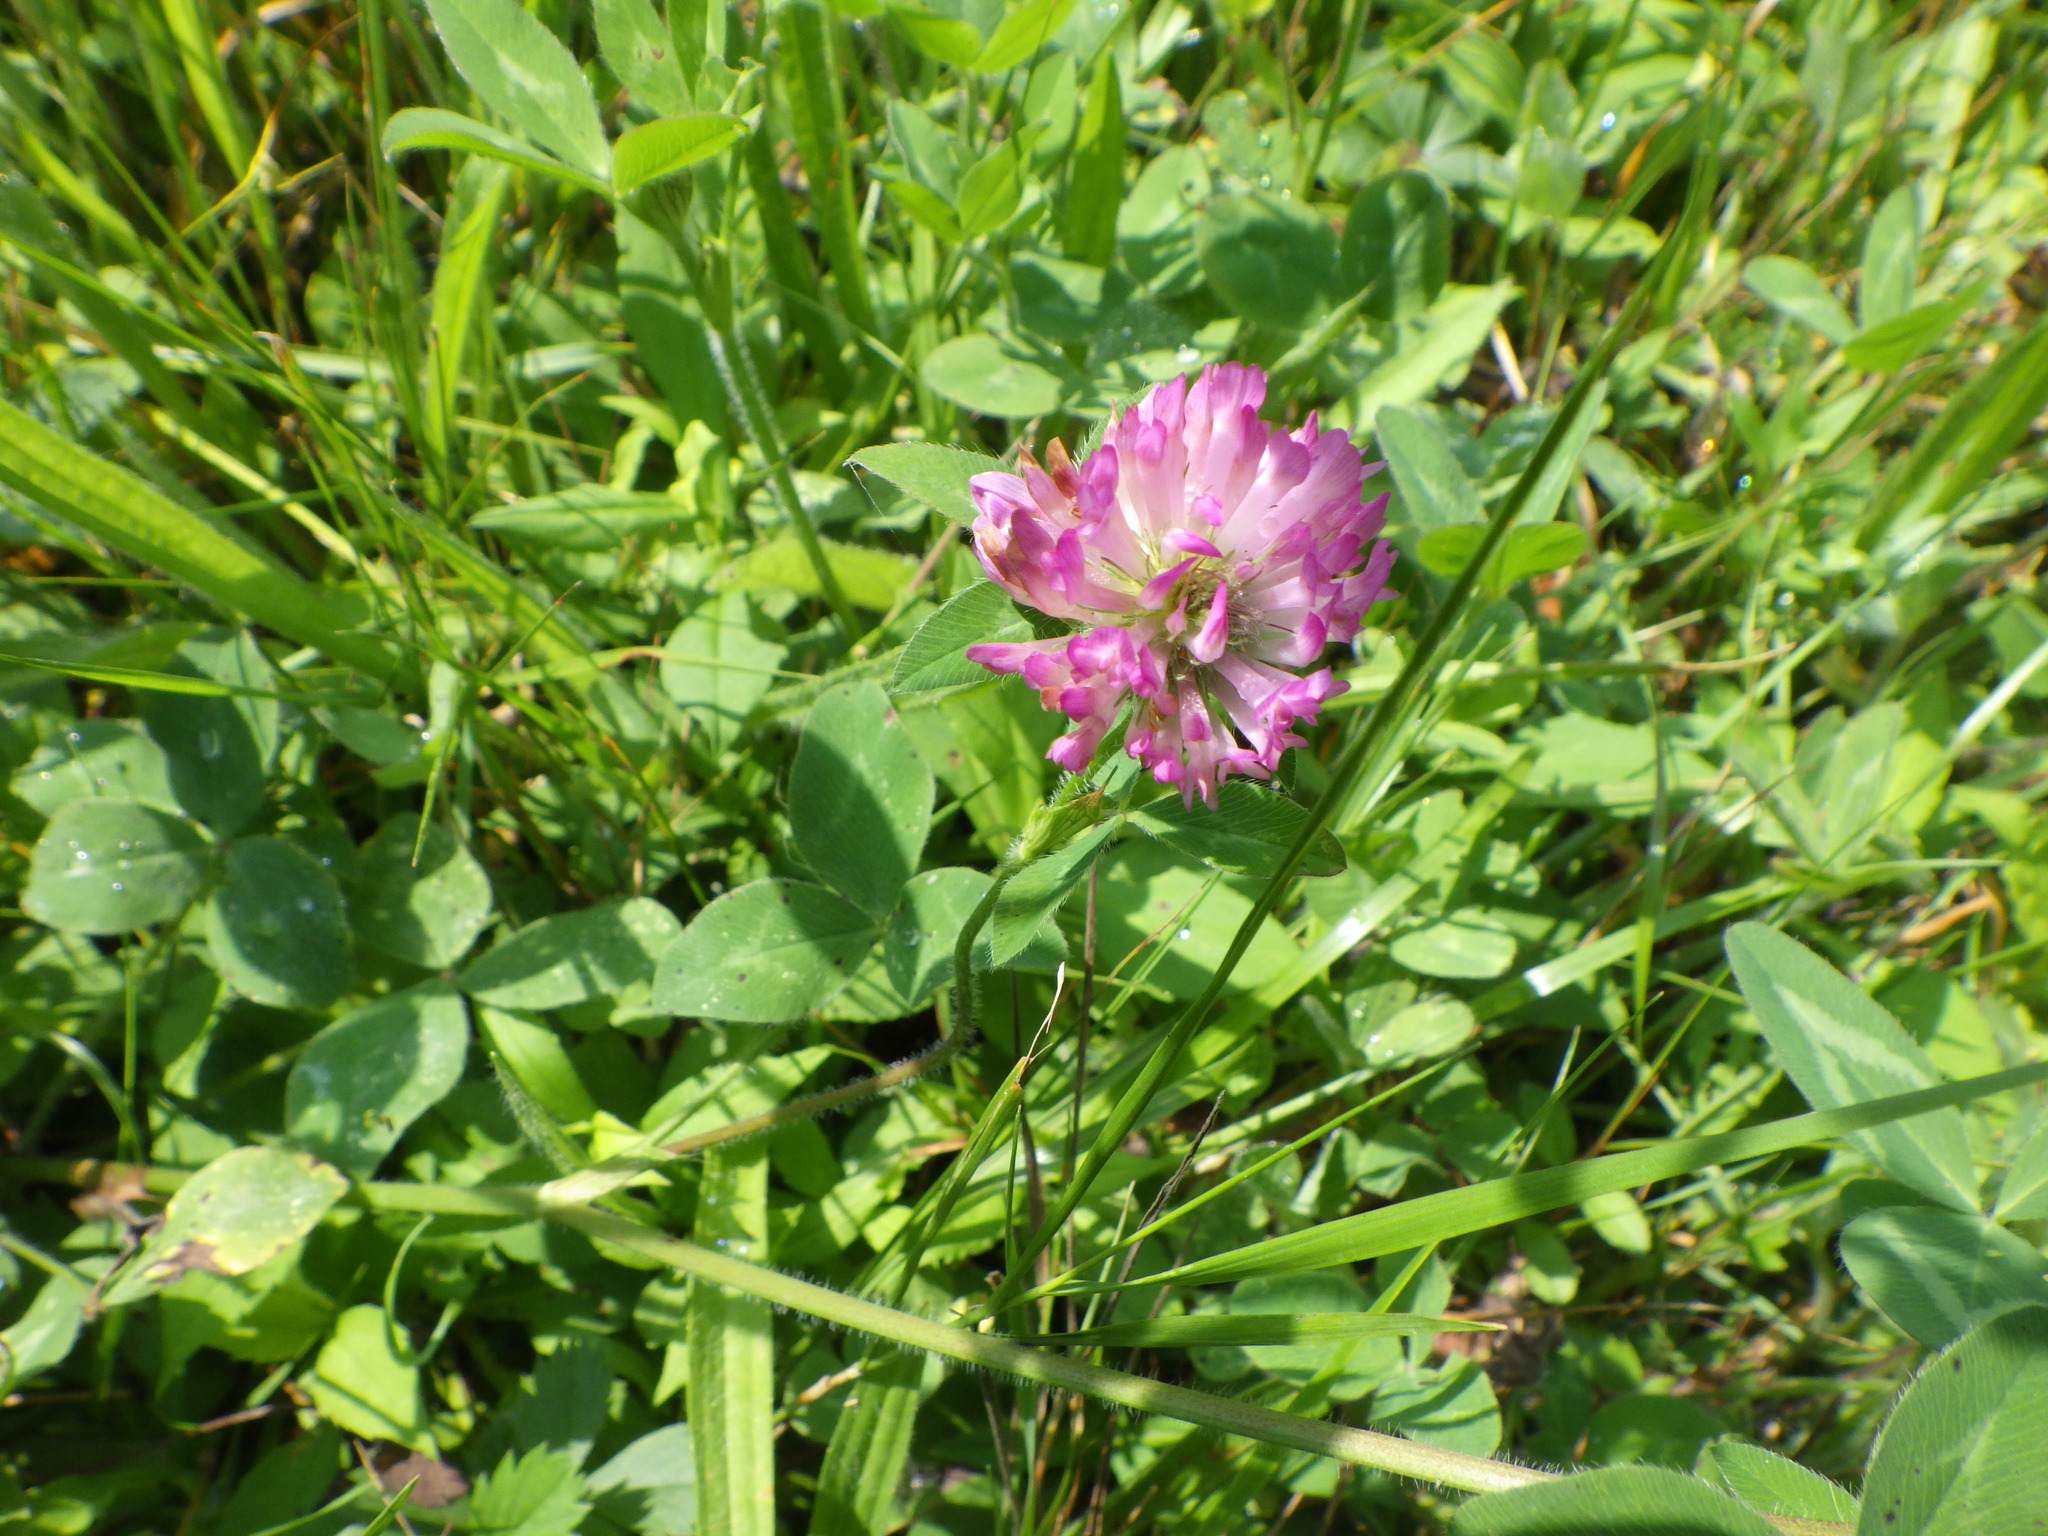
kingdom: Plantae
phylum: Tracheophyta
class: Magnoliopsida
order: Fabales
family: Fabaceae
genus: Trifolium
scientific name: Trifolium pratense
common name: Red clover
